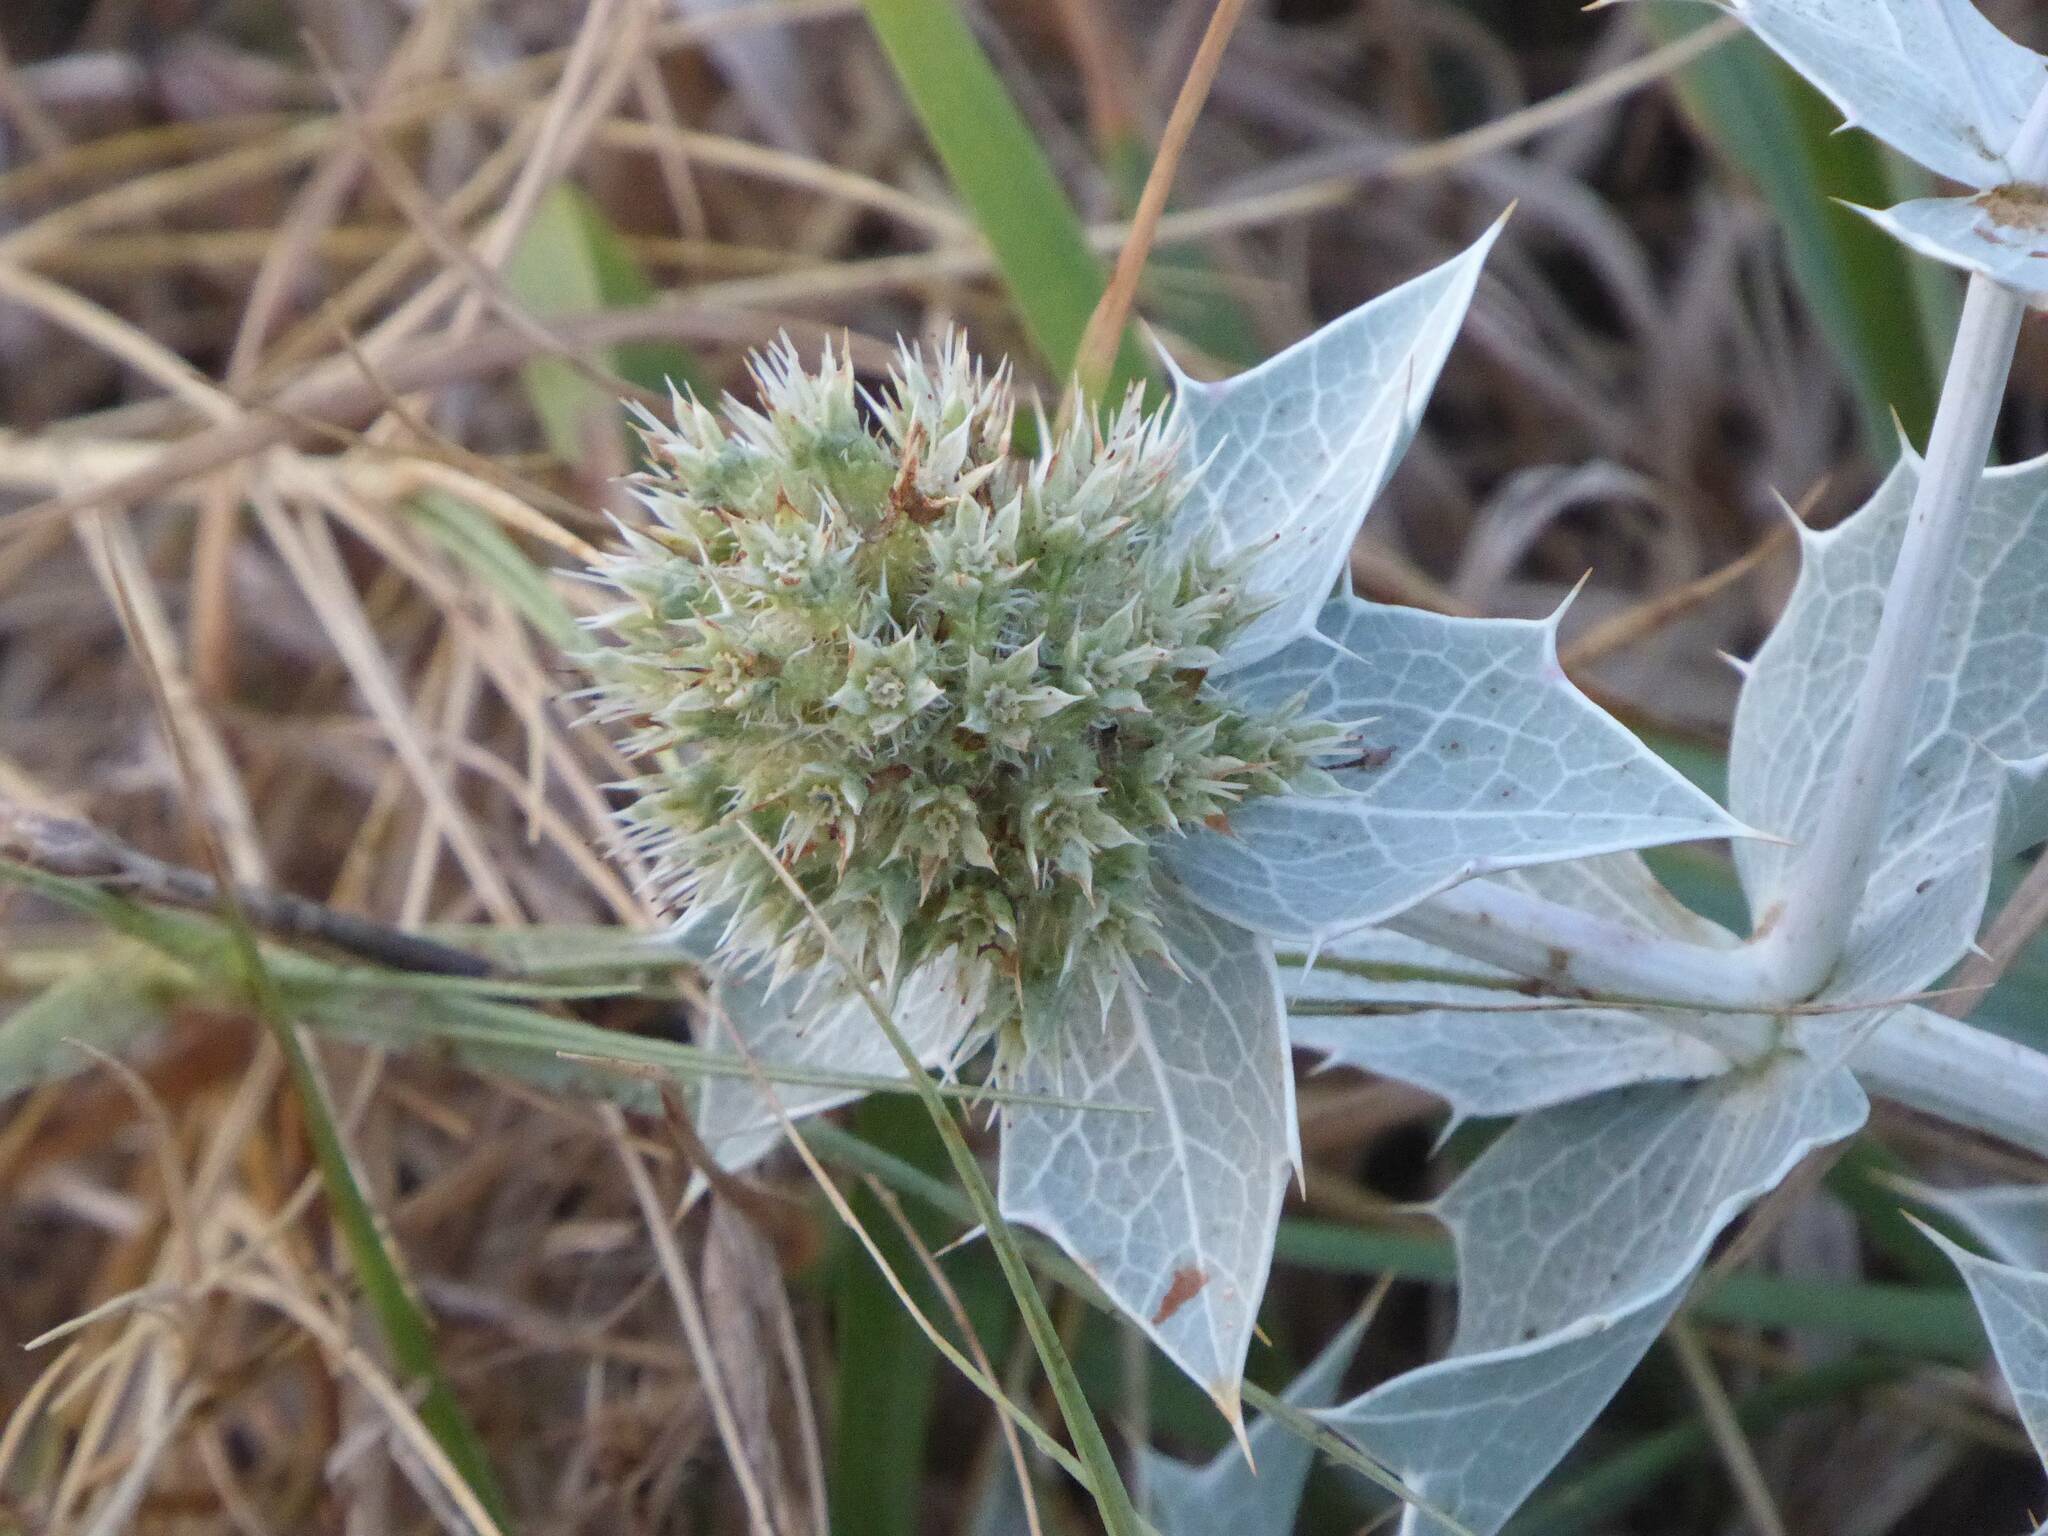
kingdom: Plantae
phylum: Tracheophyta
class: Magnoliopsida
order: Apiales
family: Apiaceae
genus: Eryngium
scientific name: Eryngium maritimum
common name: Sea-holly
